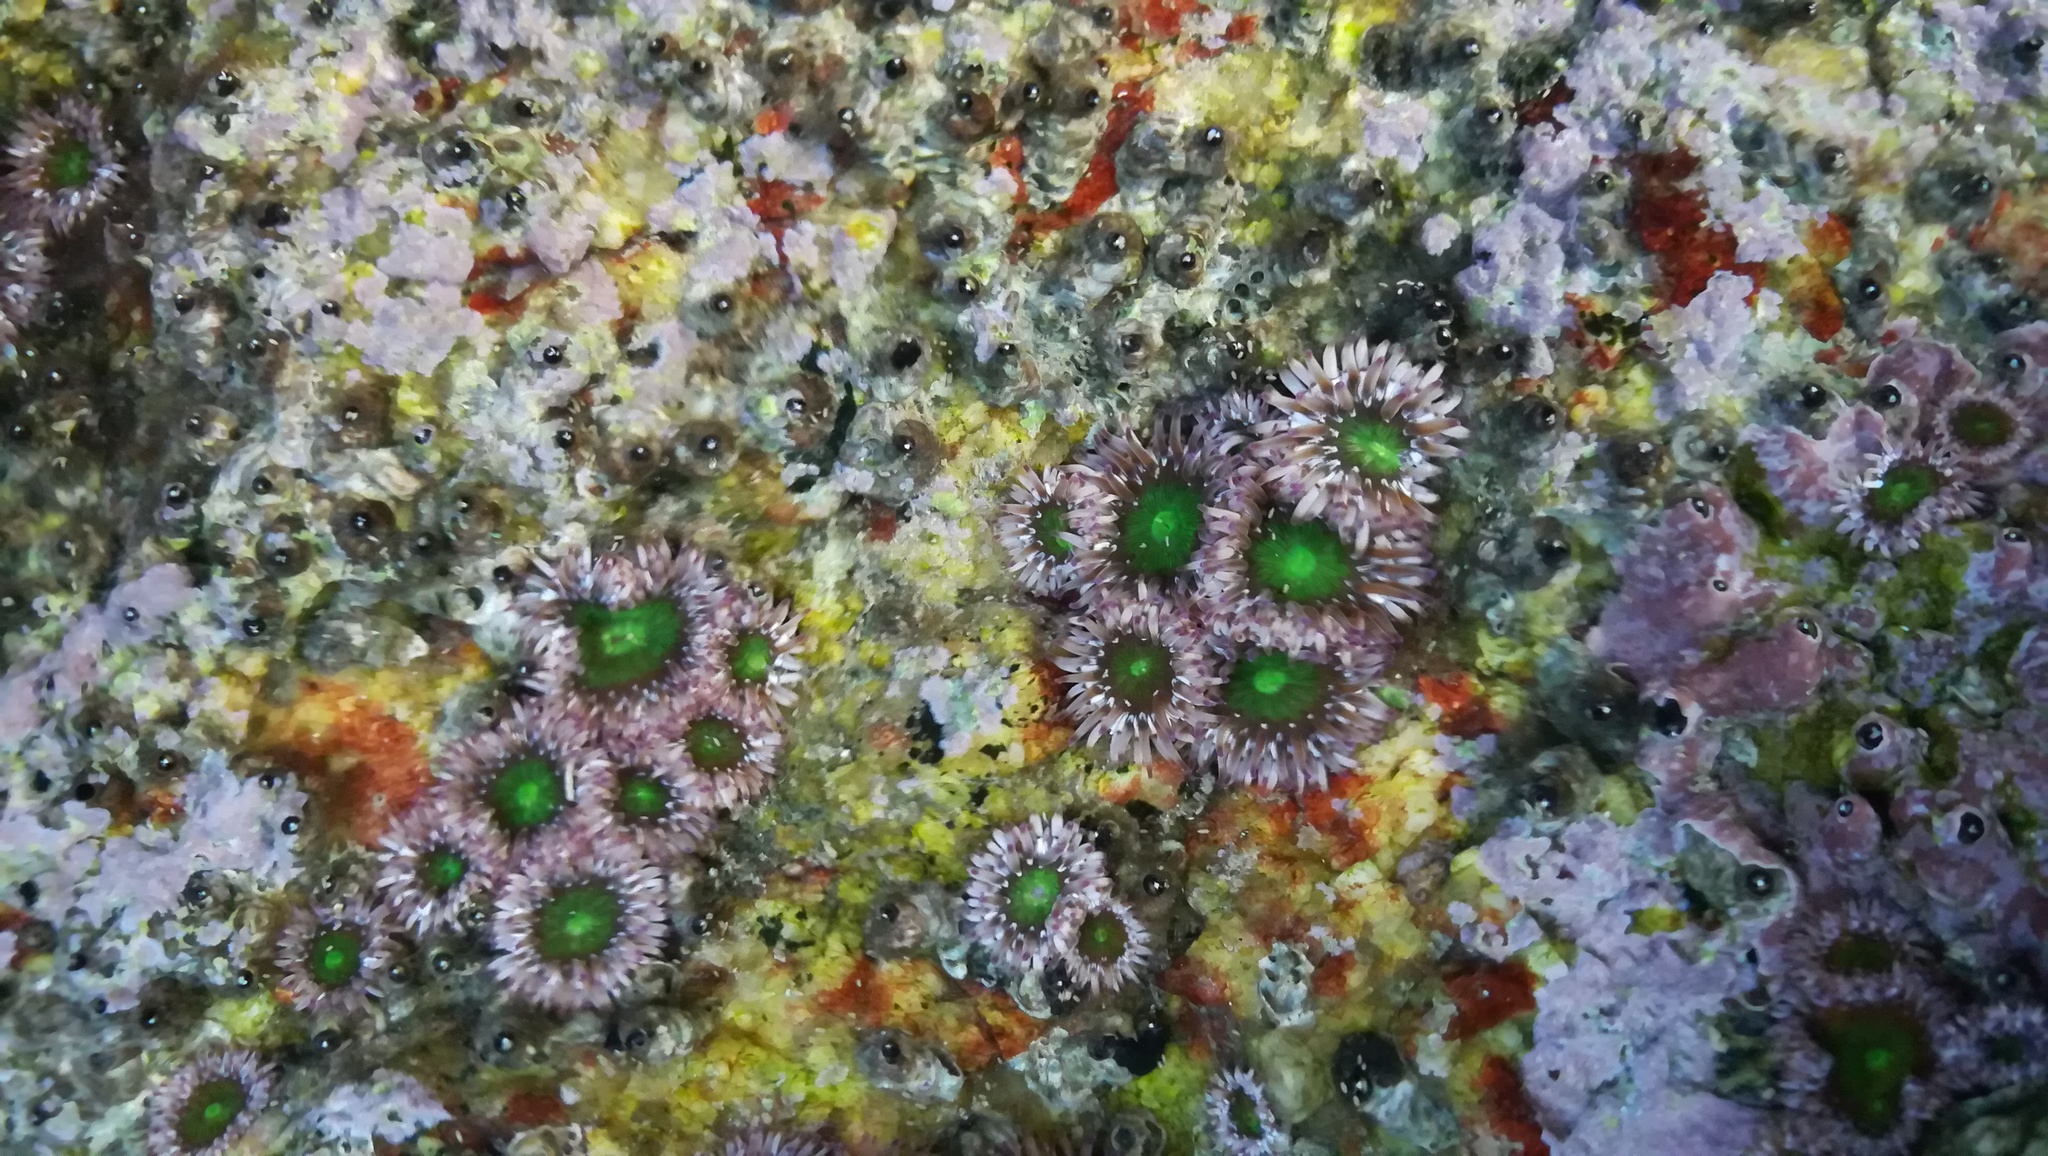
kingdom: Animalia
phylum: Cnidaria
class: Anthozoa
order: Actiniaria
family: Actiniidae
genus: Gyractis
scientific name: Gyractis sesere
